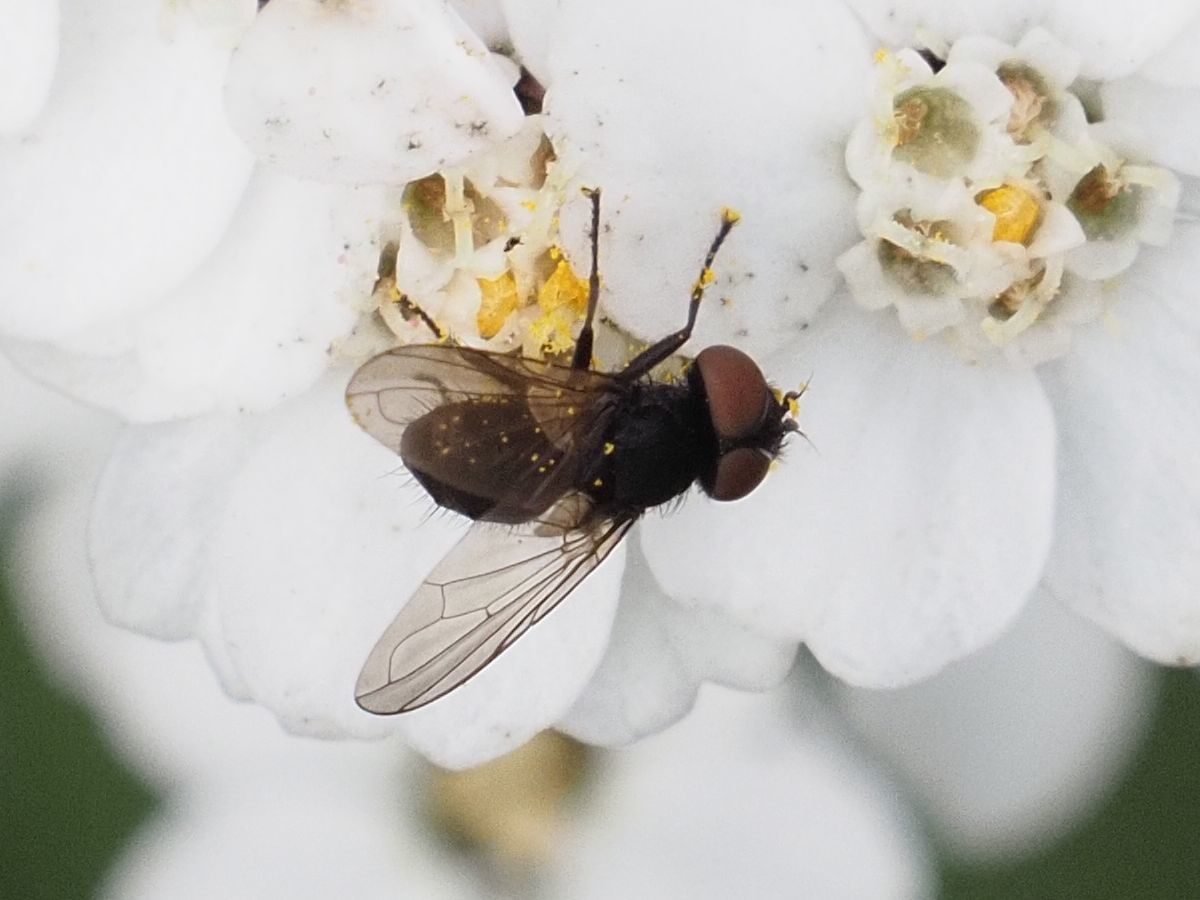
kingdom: Animalia
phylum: Arthropoda
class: Insecta
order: Diptera
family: Tachinidae
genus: Phasia
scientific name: Phasia barbifrons
